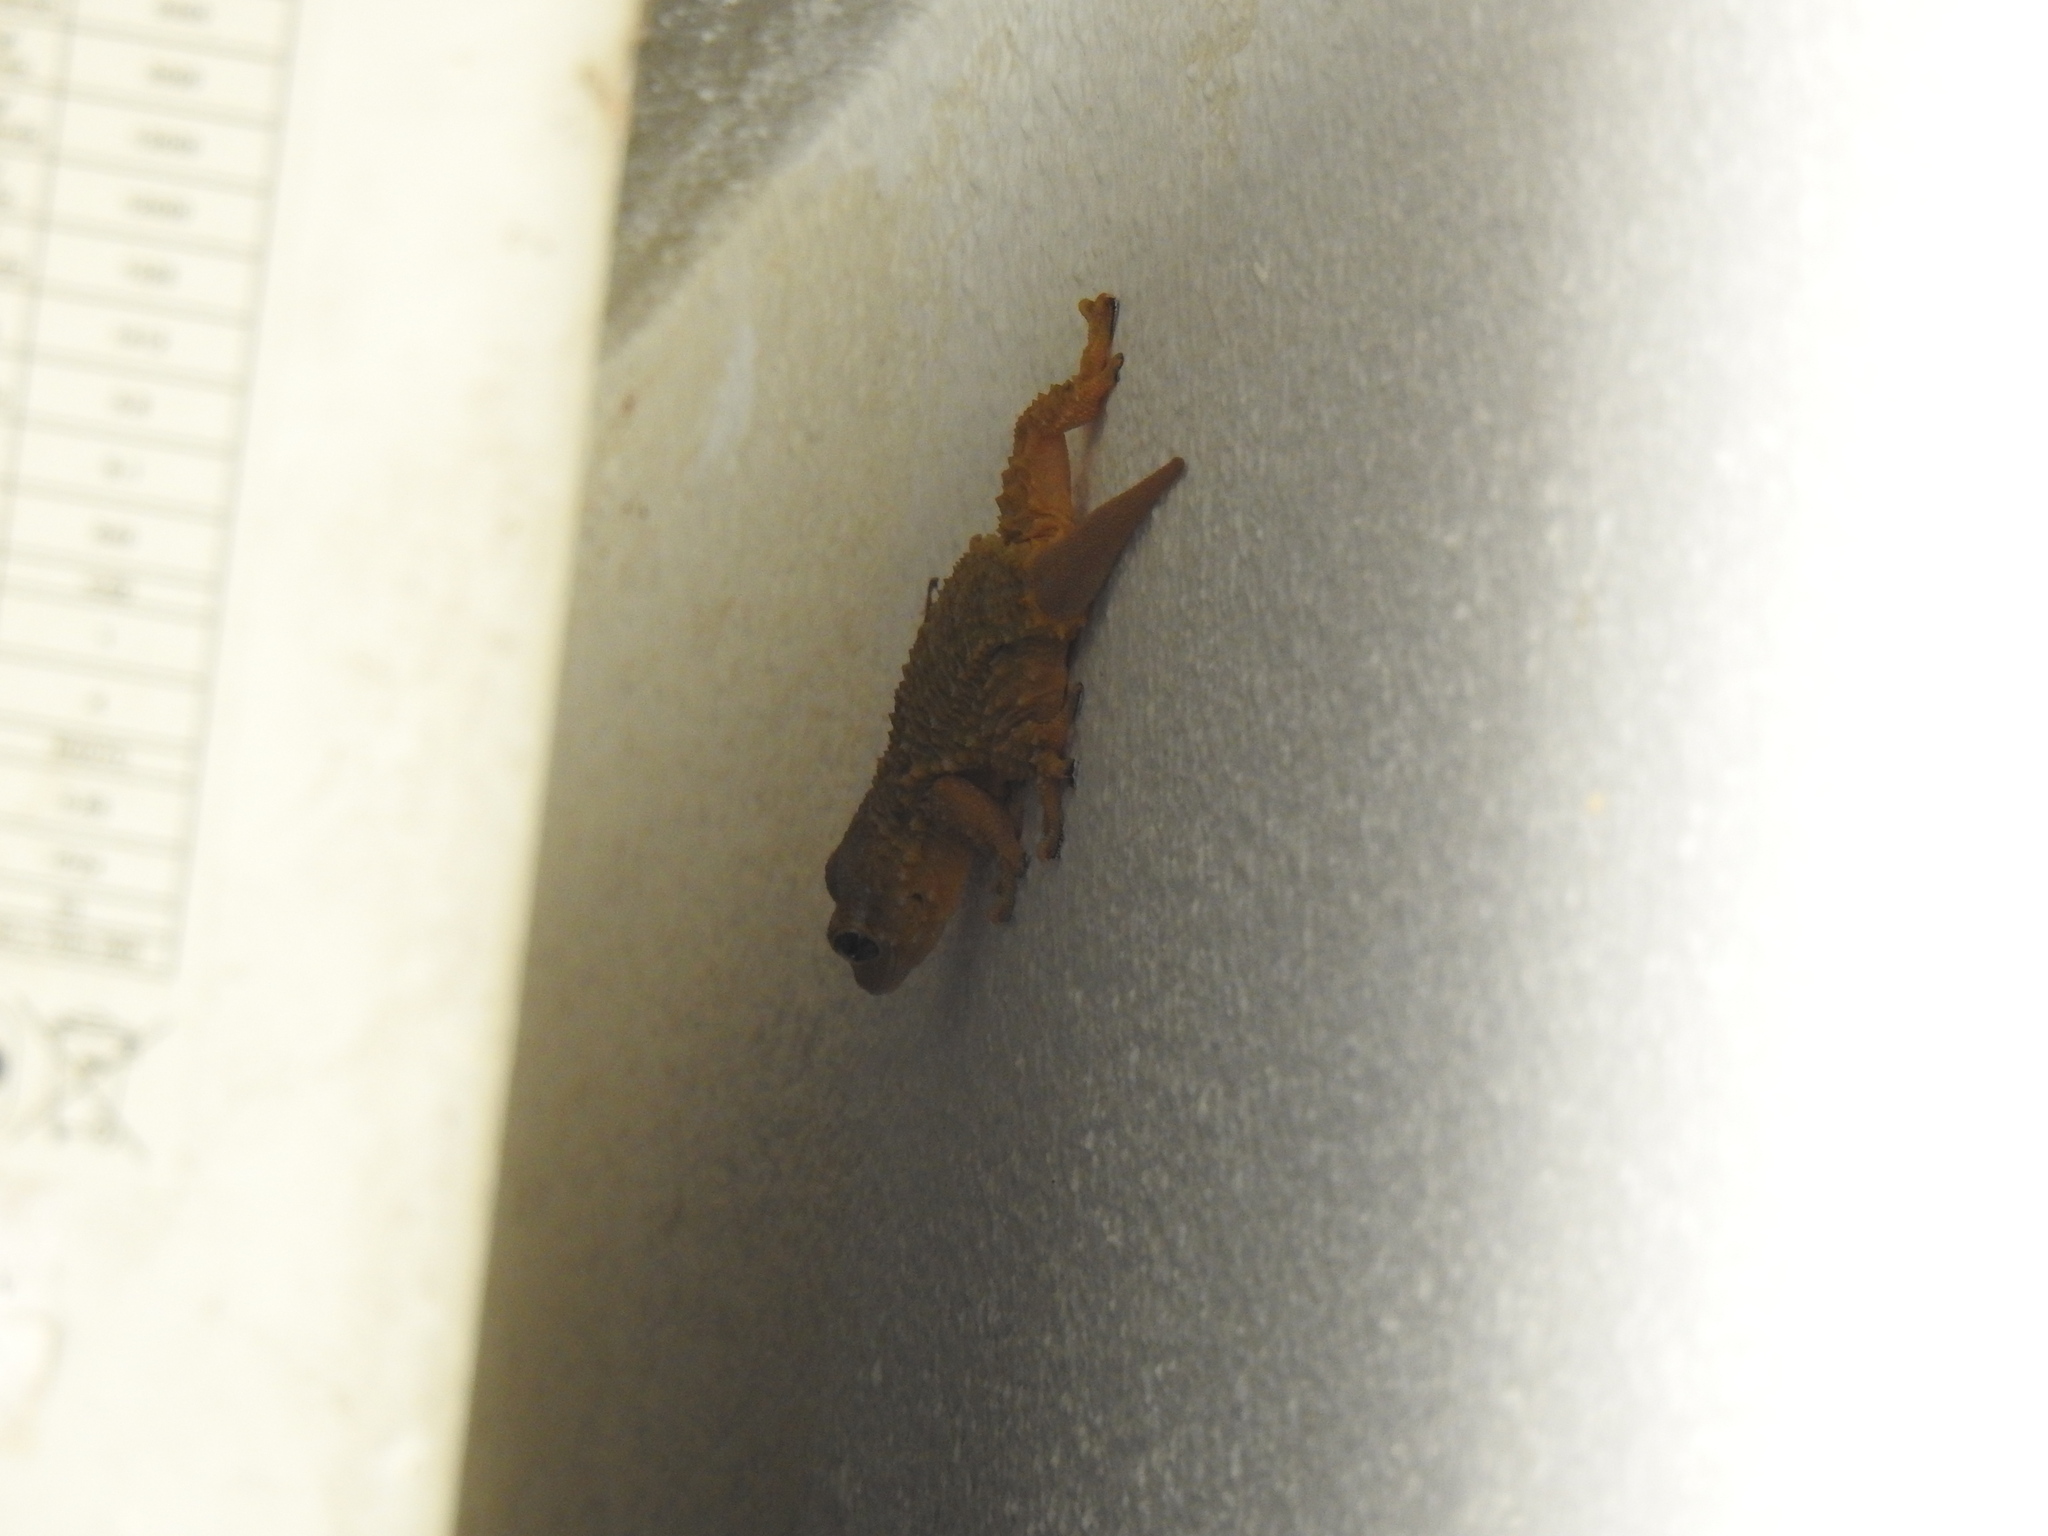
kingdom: Animalia
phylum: Chordata
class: Squamata
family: Phyllodactylidae
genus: Tarentola
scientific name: Tarentola mauritanica
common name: Moorish gecko
